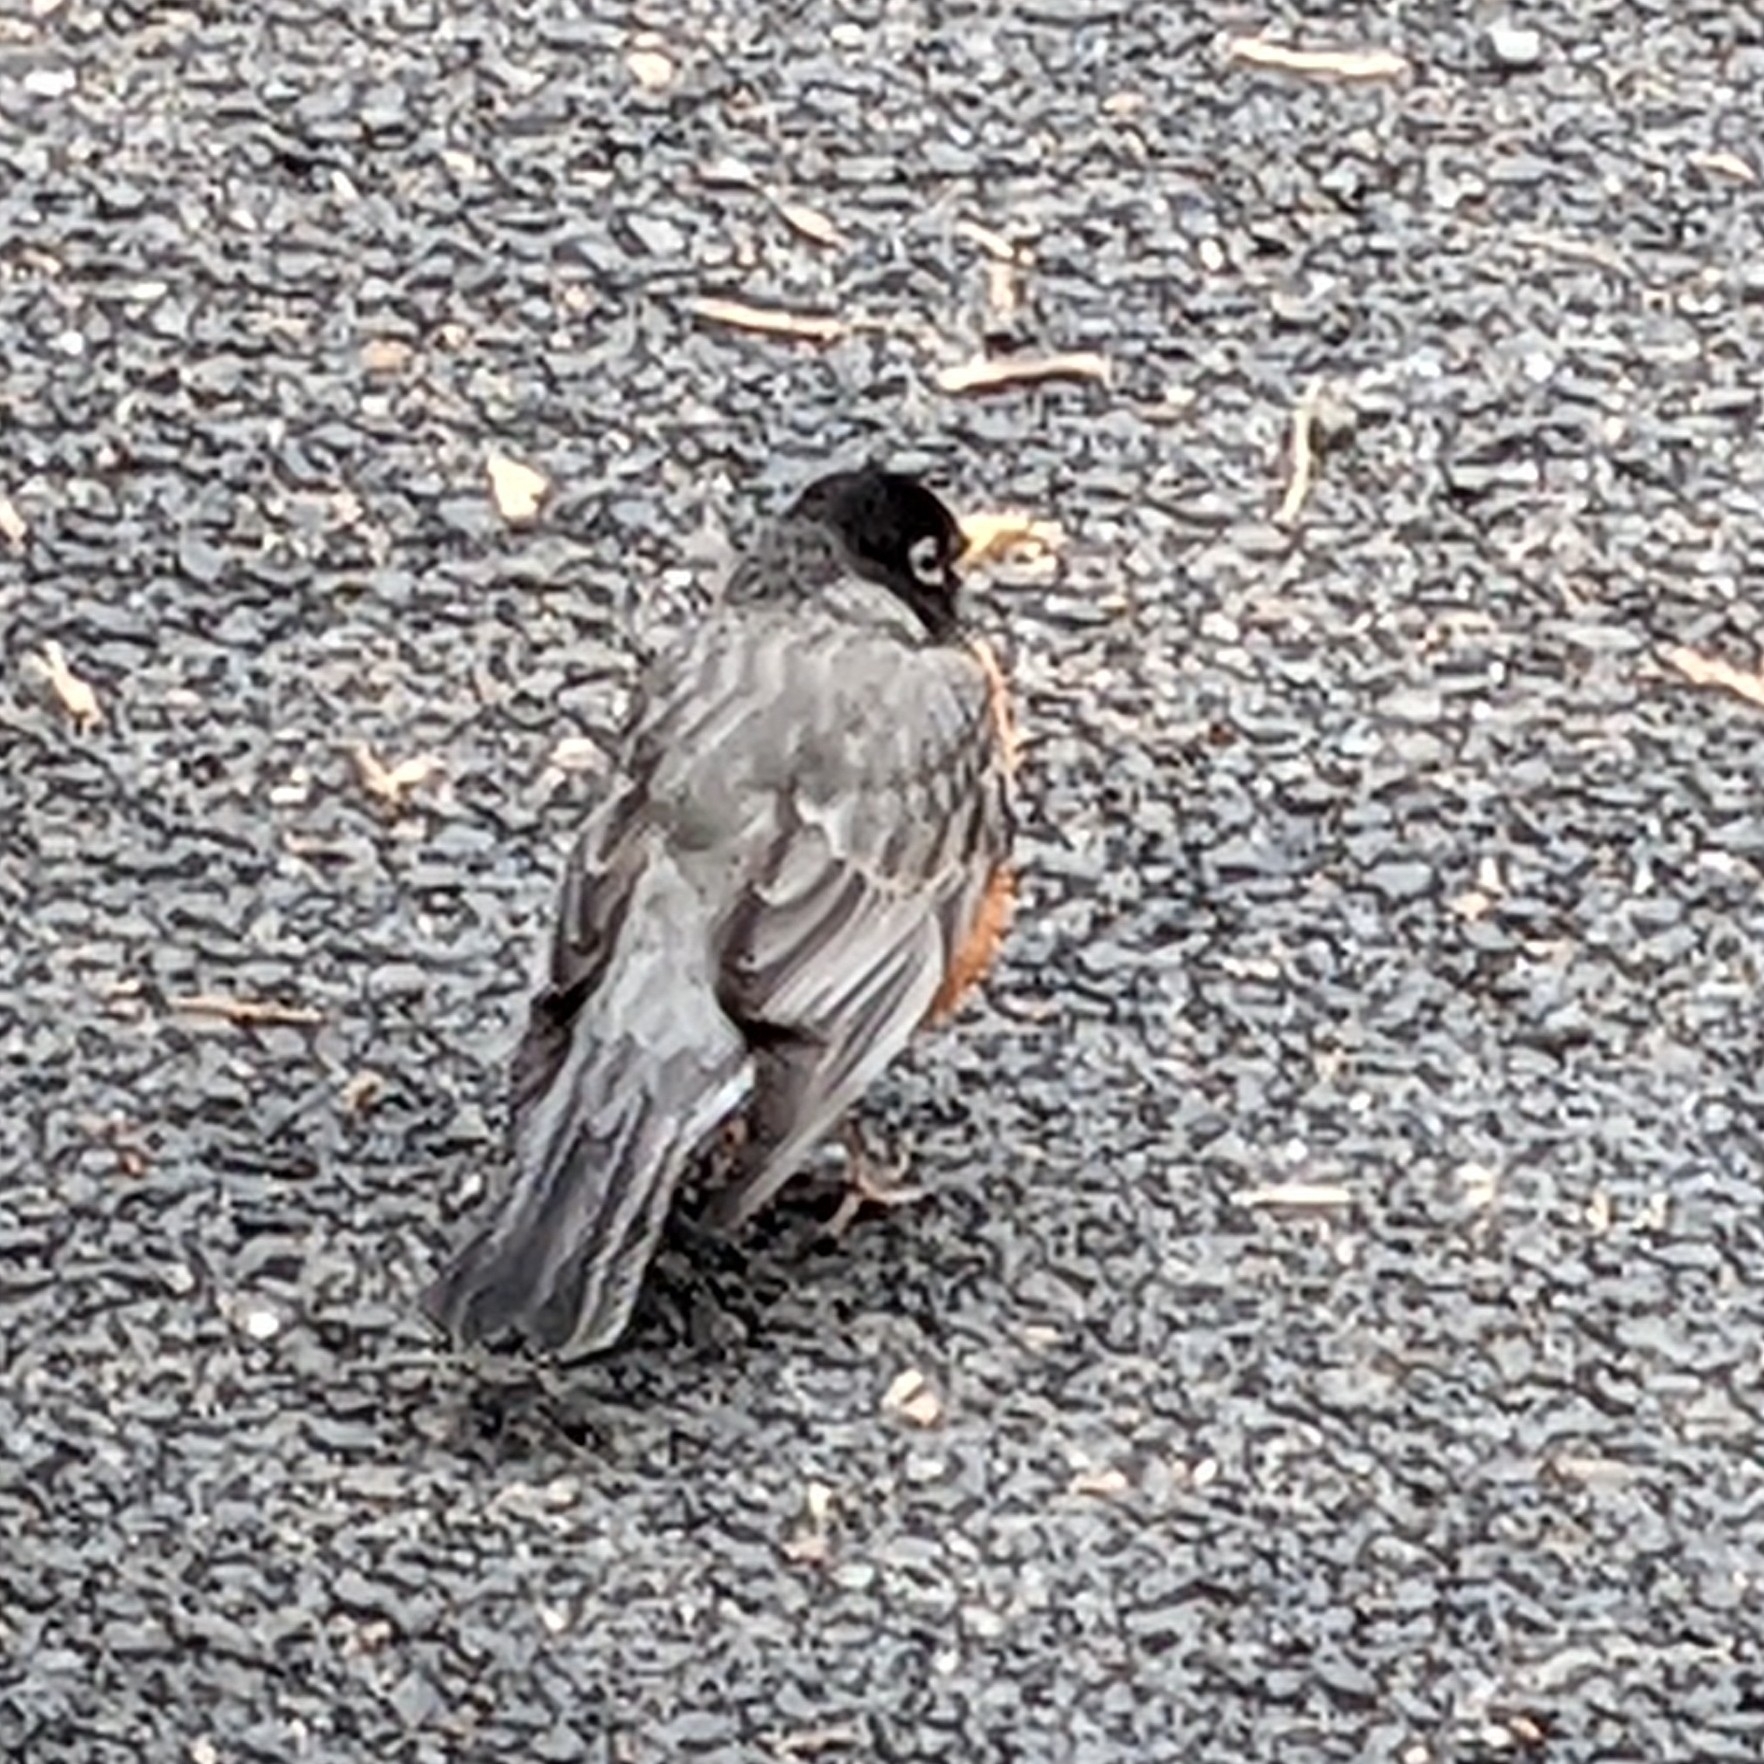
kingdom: Animalia
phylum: Chordata
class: Aves
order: Passeriformes
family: Turdidae
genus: Turdus
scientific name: Turdus migratorius
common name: American robin
